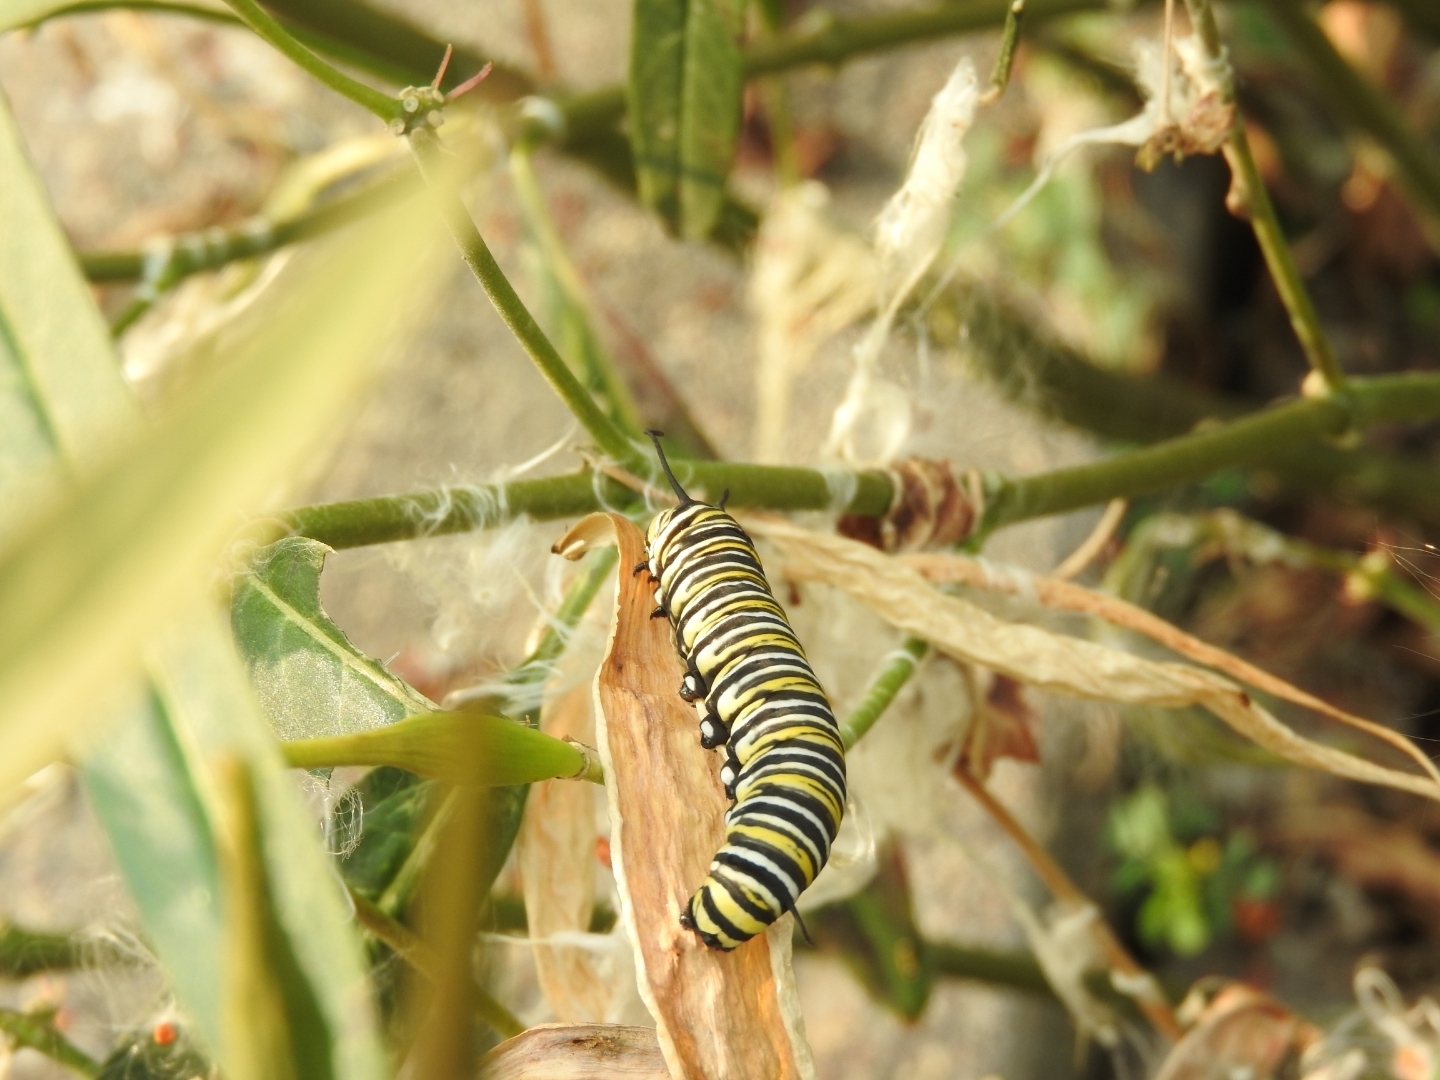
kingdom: Animalia
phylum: Arthropoda
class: Insecta
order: Lepidoptera
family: Nymphalidae
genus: Danaus
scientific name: Danaus plexippus
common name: Monarch
